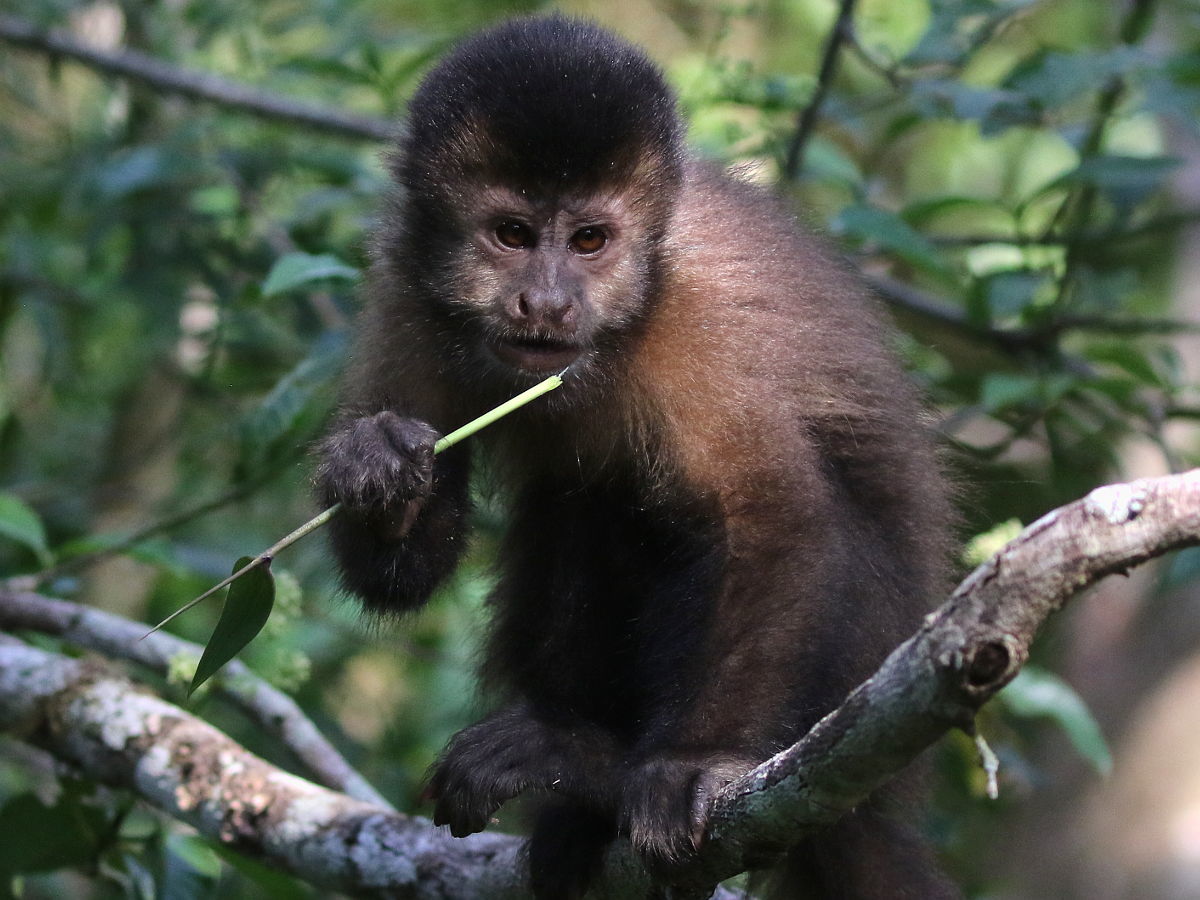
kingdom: Animalia
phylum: Chordata
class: Mammalia
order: Primates
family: Cebidae
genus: Sapajus
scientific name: Sapajus nigritus
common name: Black capuchin
